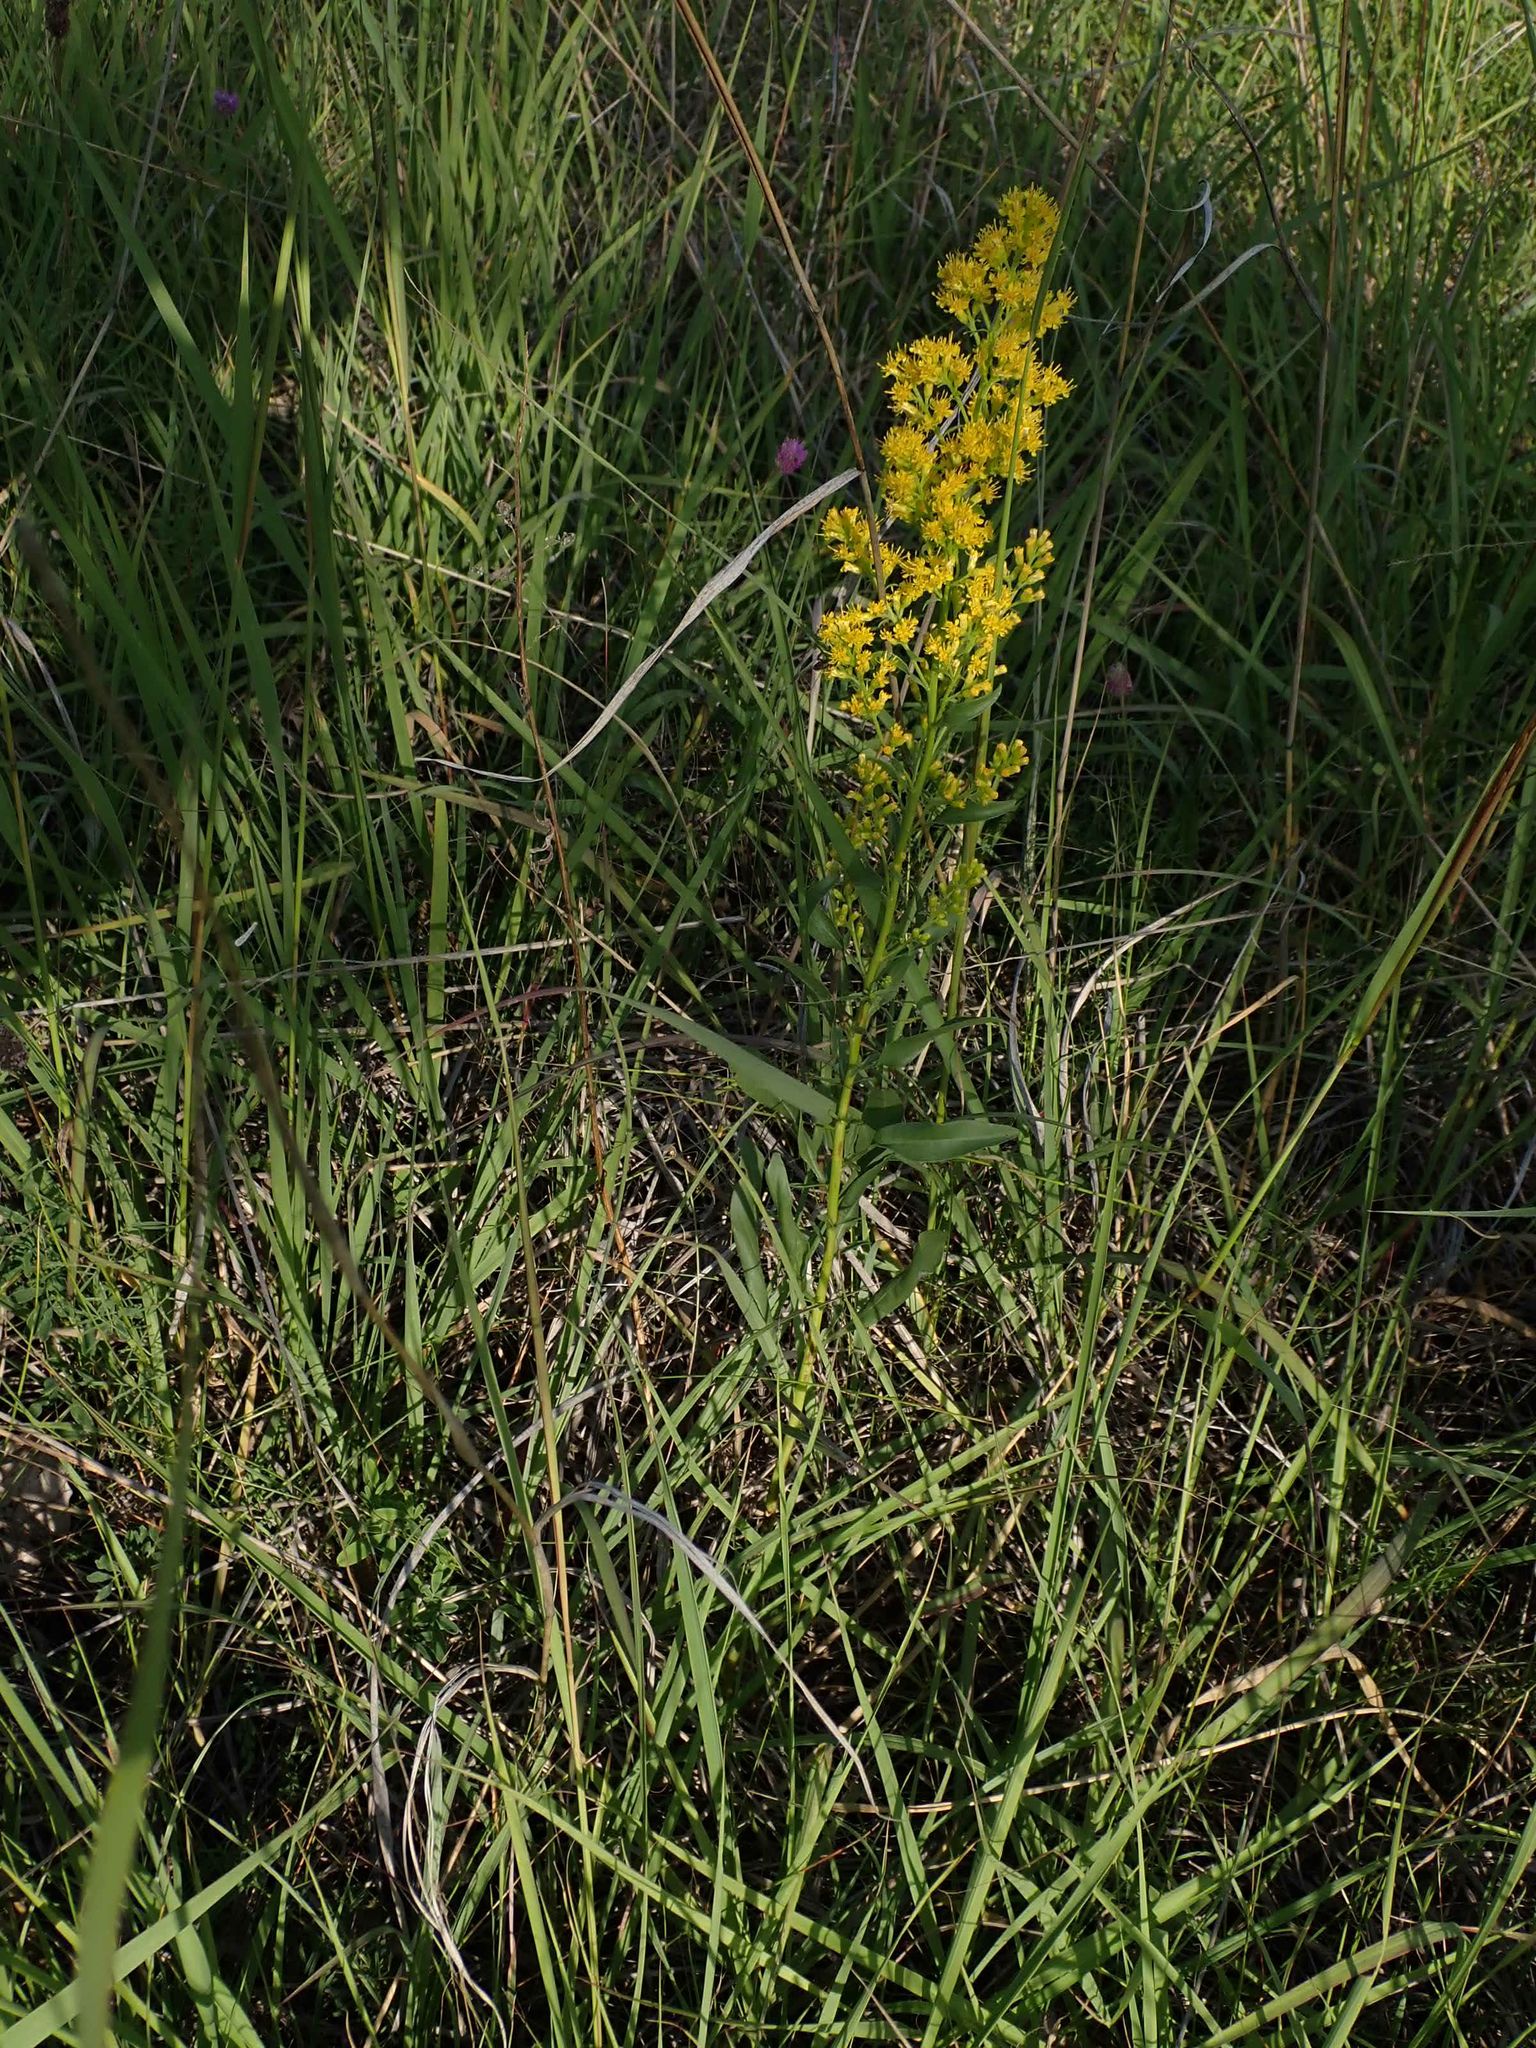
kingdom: Plantae
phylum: Tracheophyta
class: Magnoliopsida
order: Asterales
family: Asteraceae
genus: Solidago
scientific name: Solidago missouriensis
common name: Prairie goldenrod
